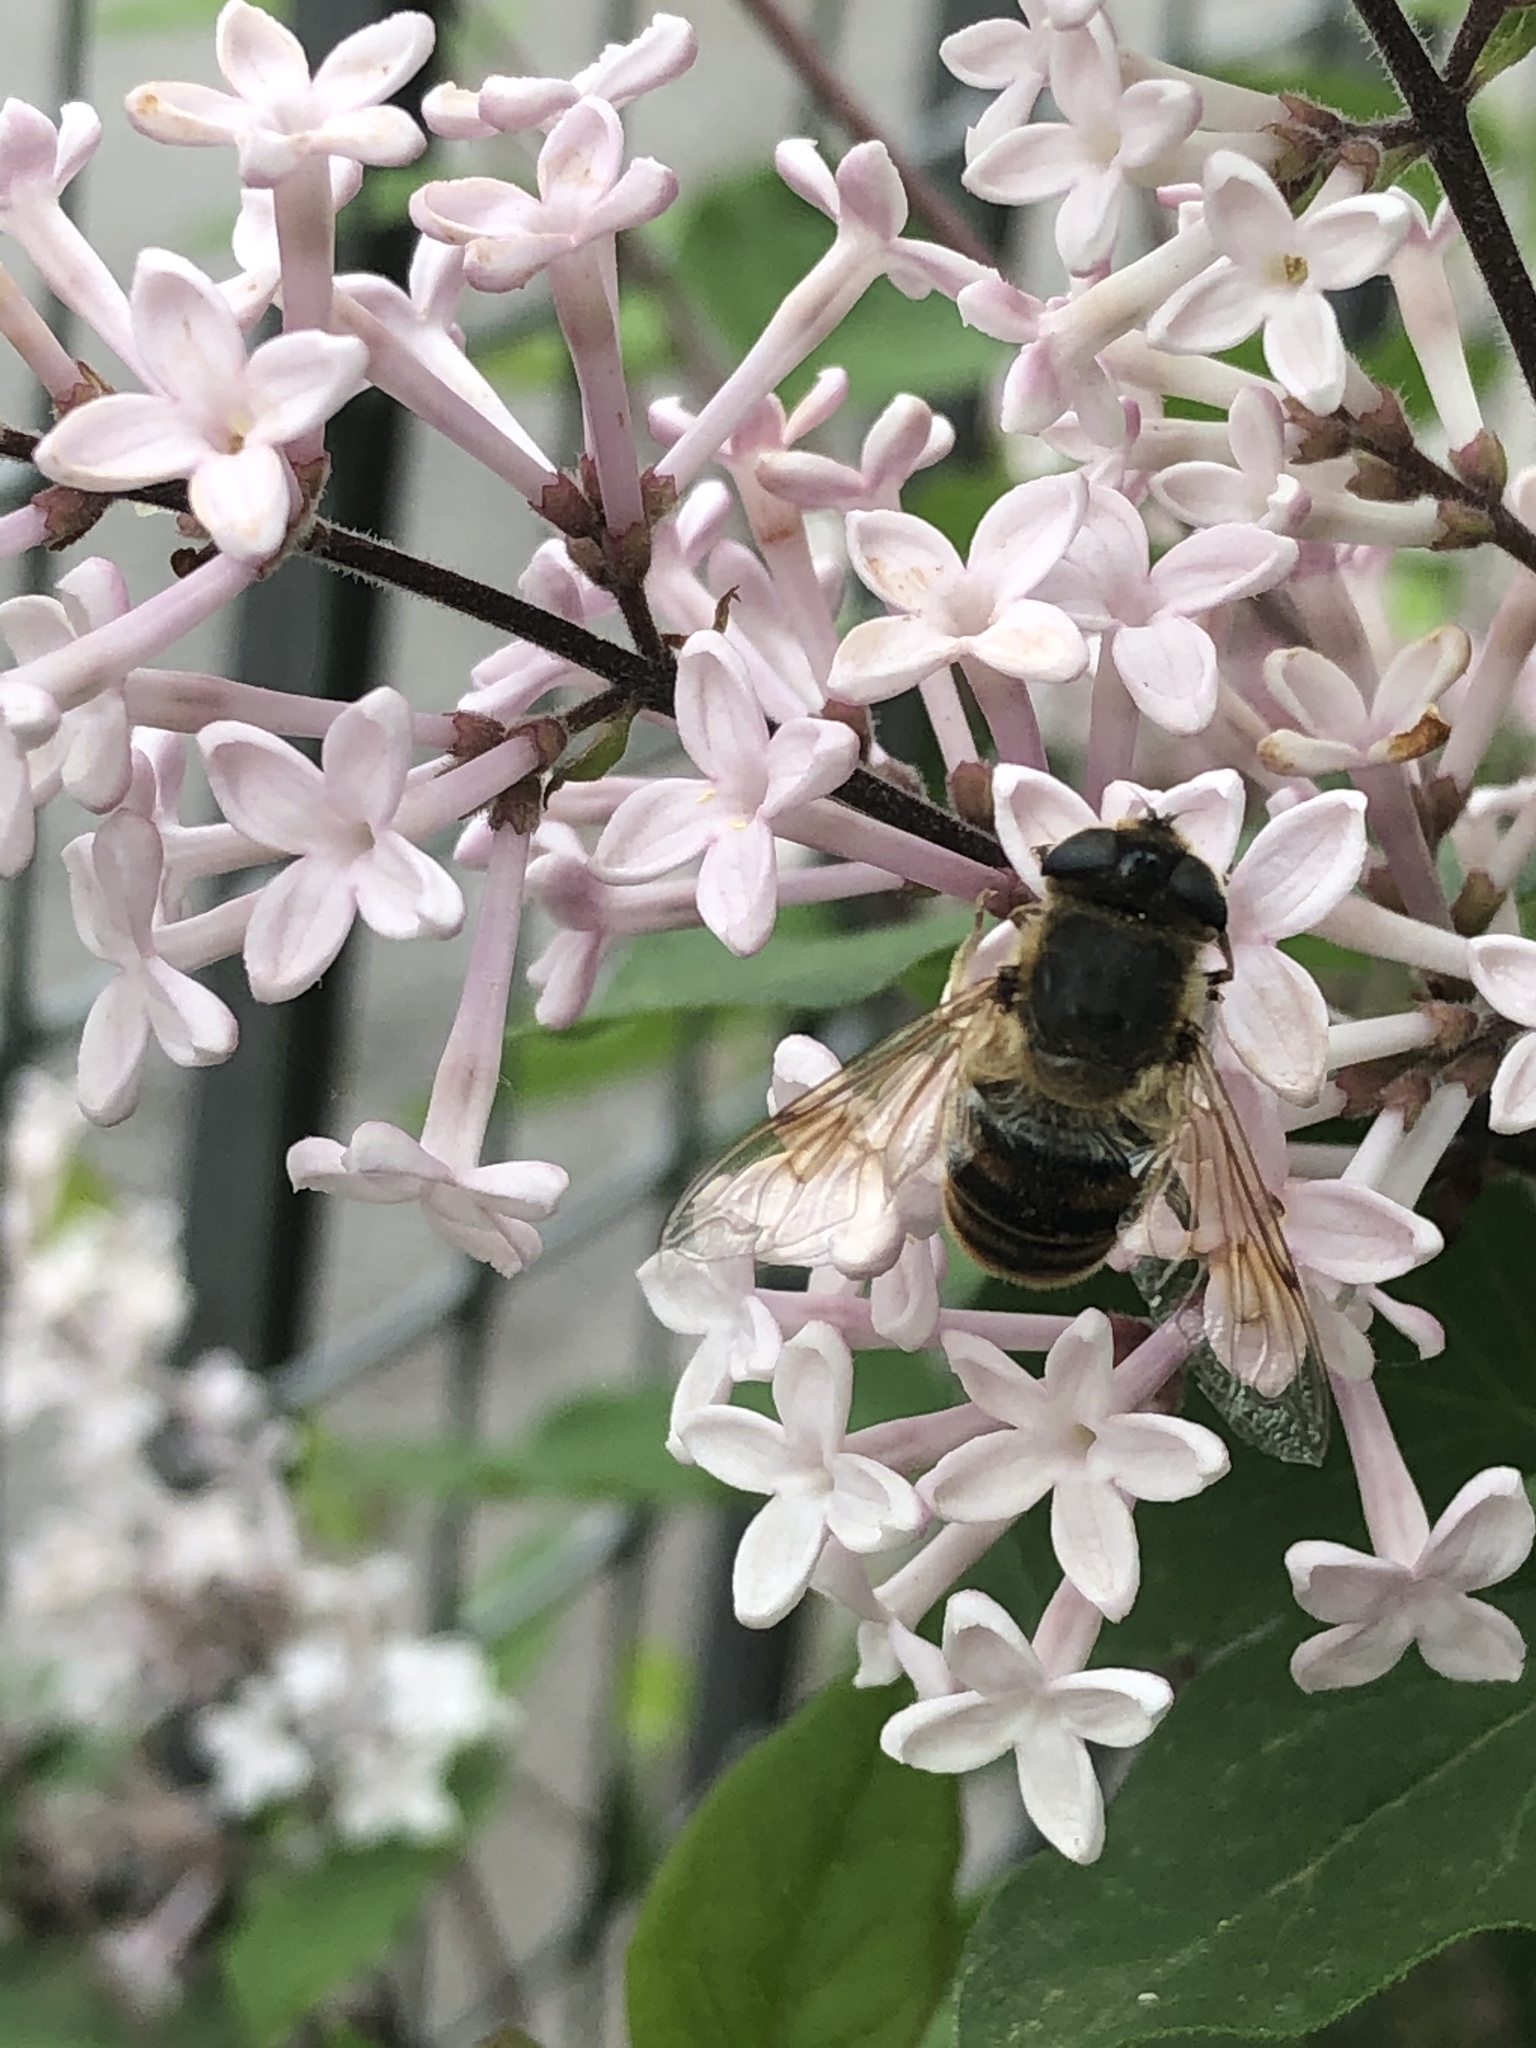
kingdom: Animalia
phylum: Arthropoda
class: Insecta
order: Diptera
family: Syrphidae
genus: Eristalis
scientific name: Eristalis tenax
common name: Drone fly
